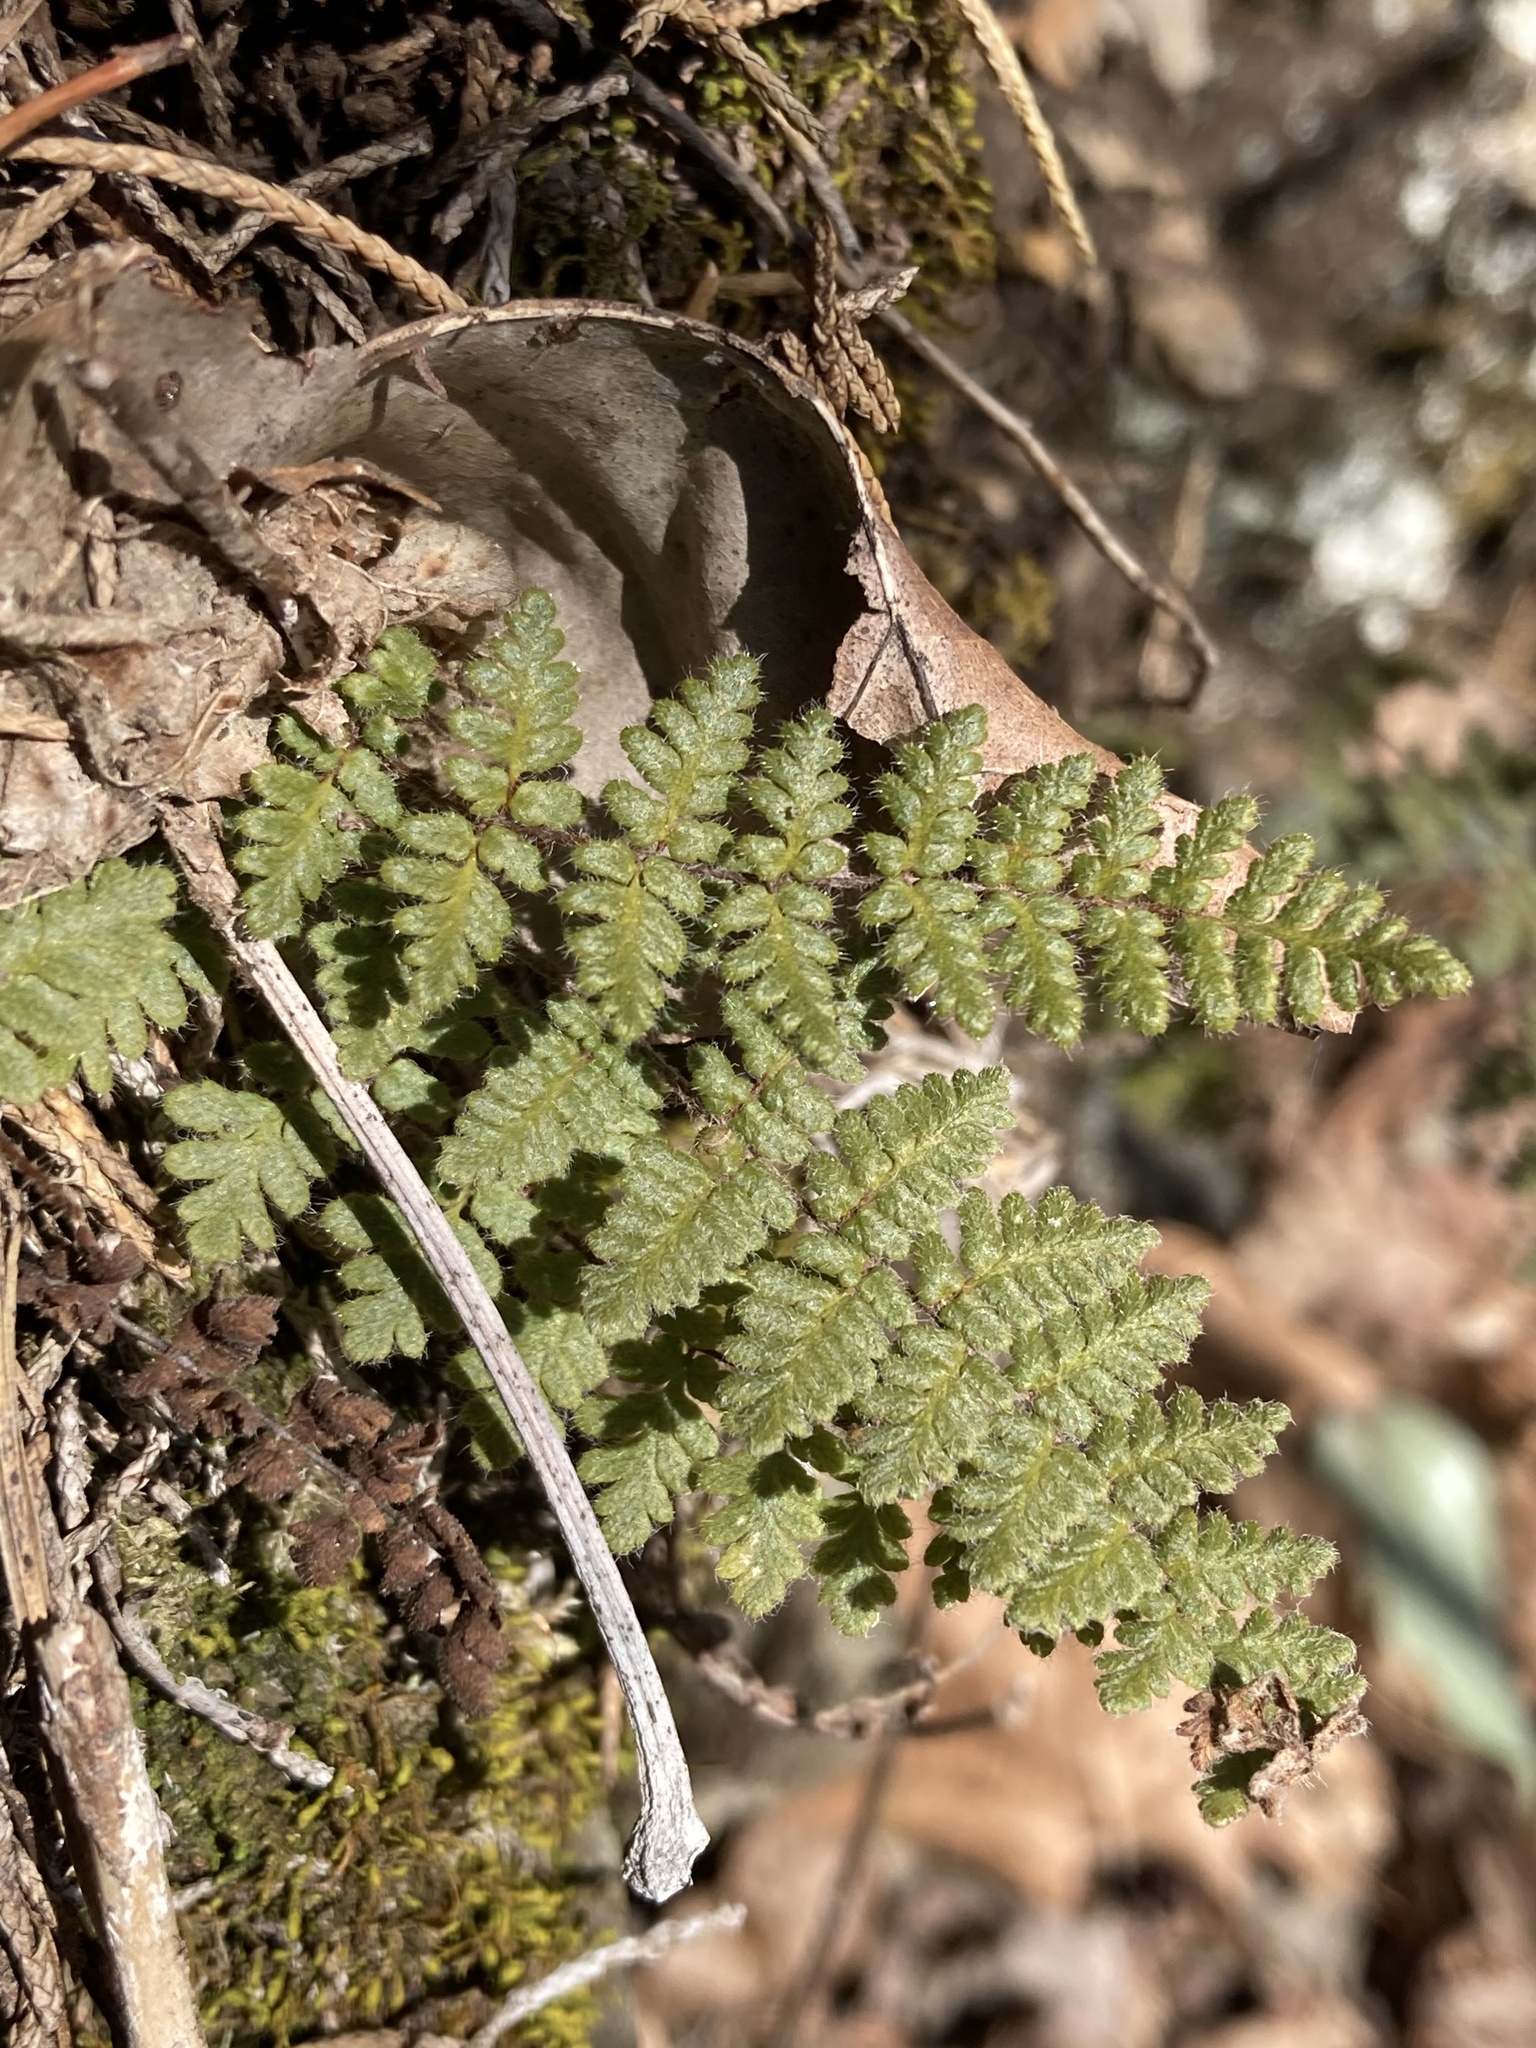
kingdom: Plantae
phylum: Tracheophyta
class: Polypodiopsida
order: Polypodiales
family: Pteridaceae
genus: Myriopteris
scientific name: Myriopteris lanosa
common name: Hairy lip fern
